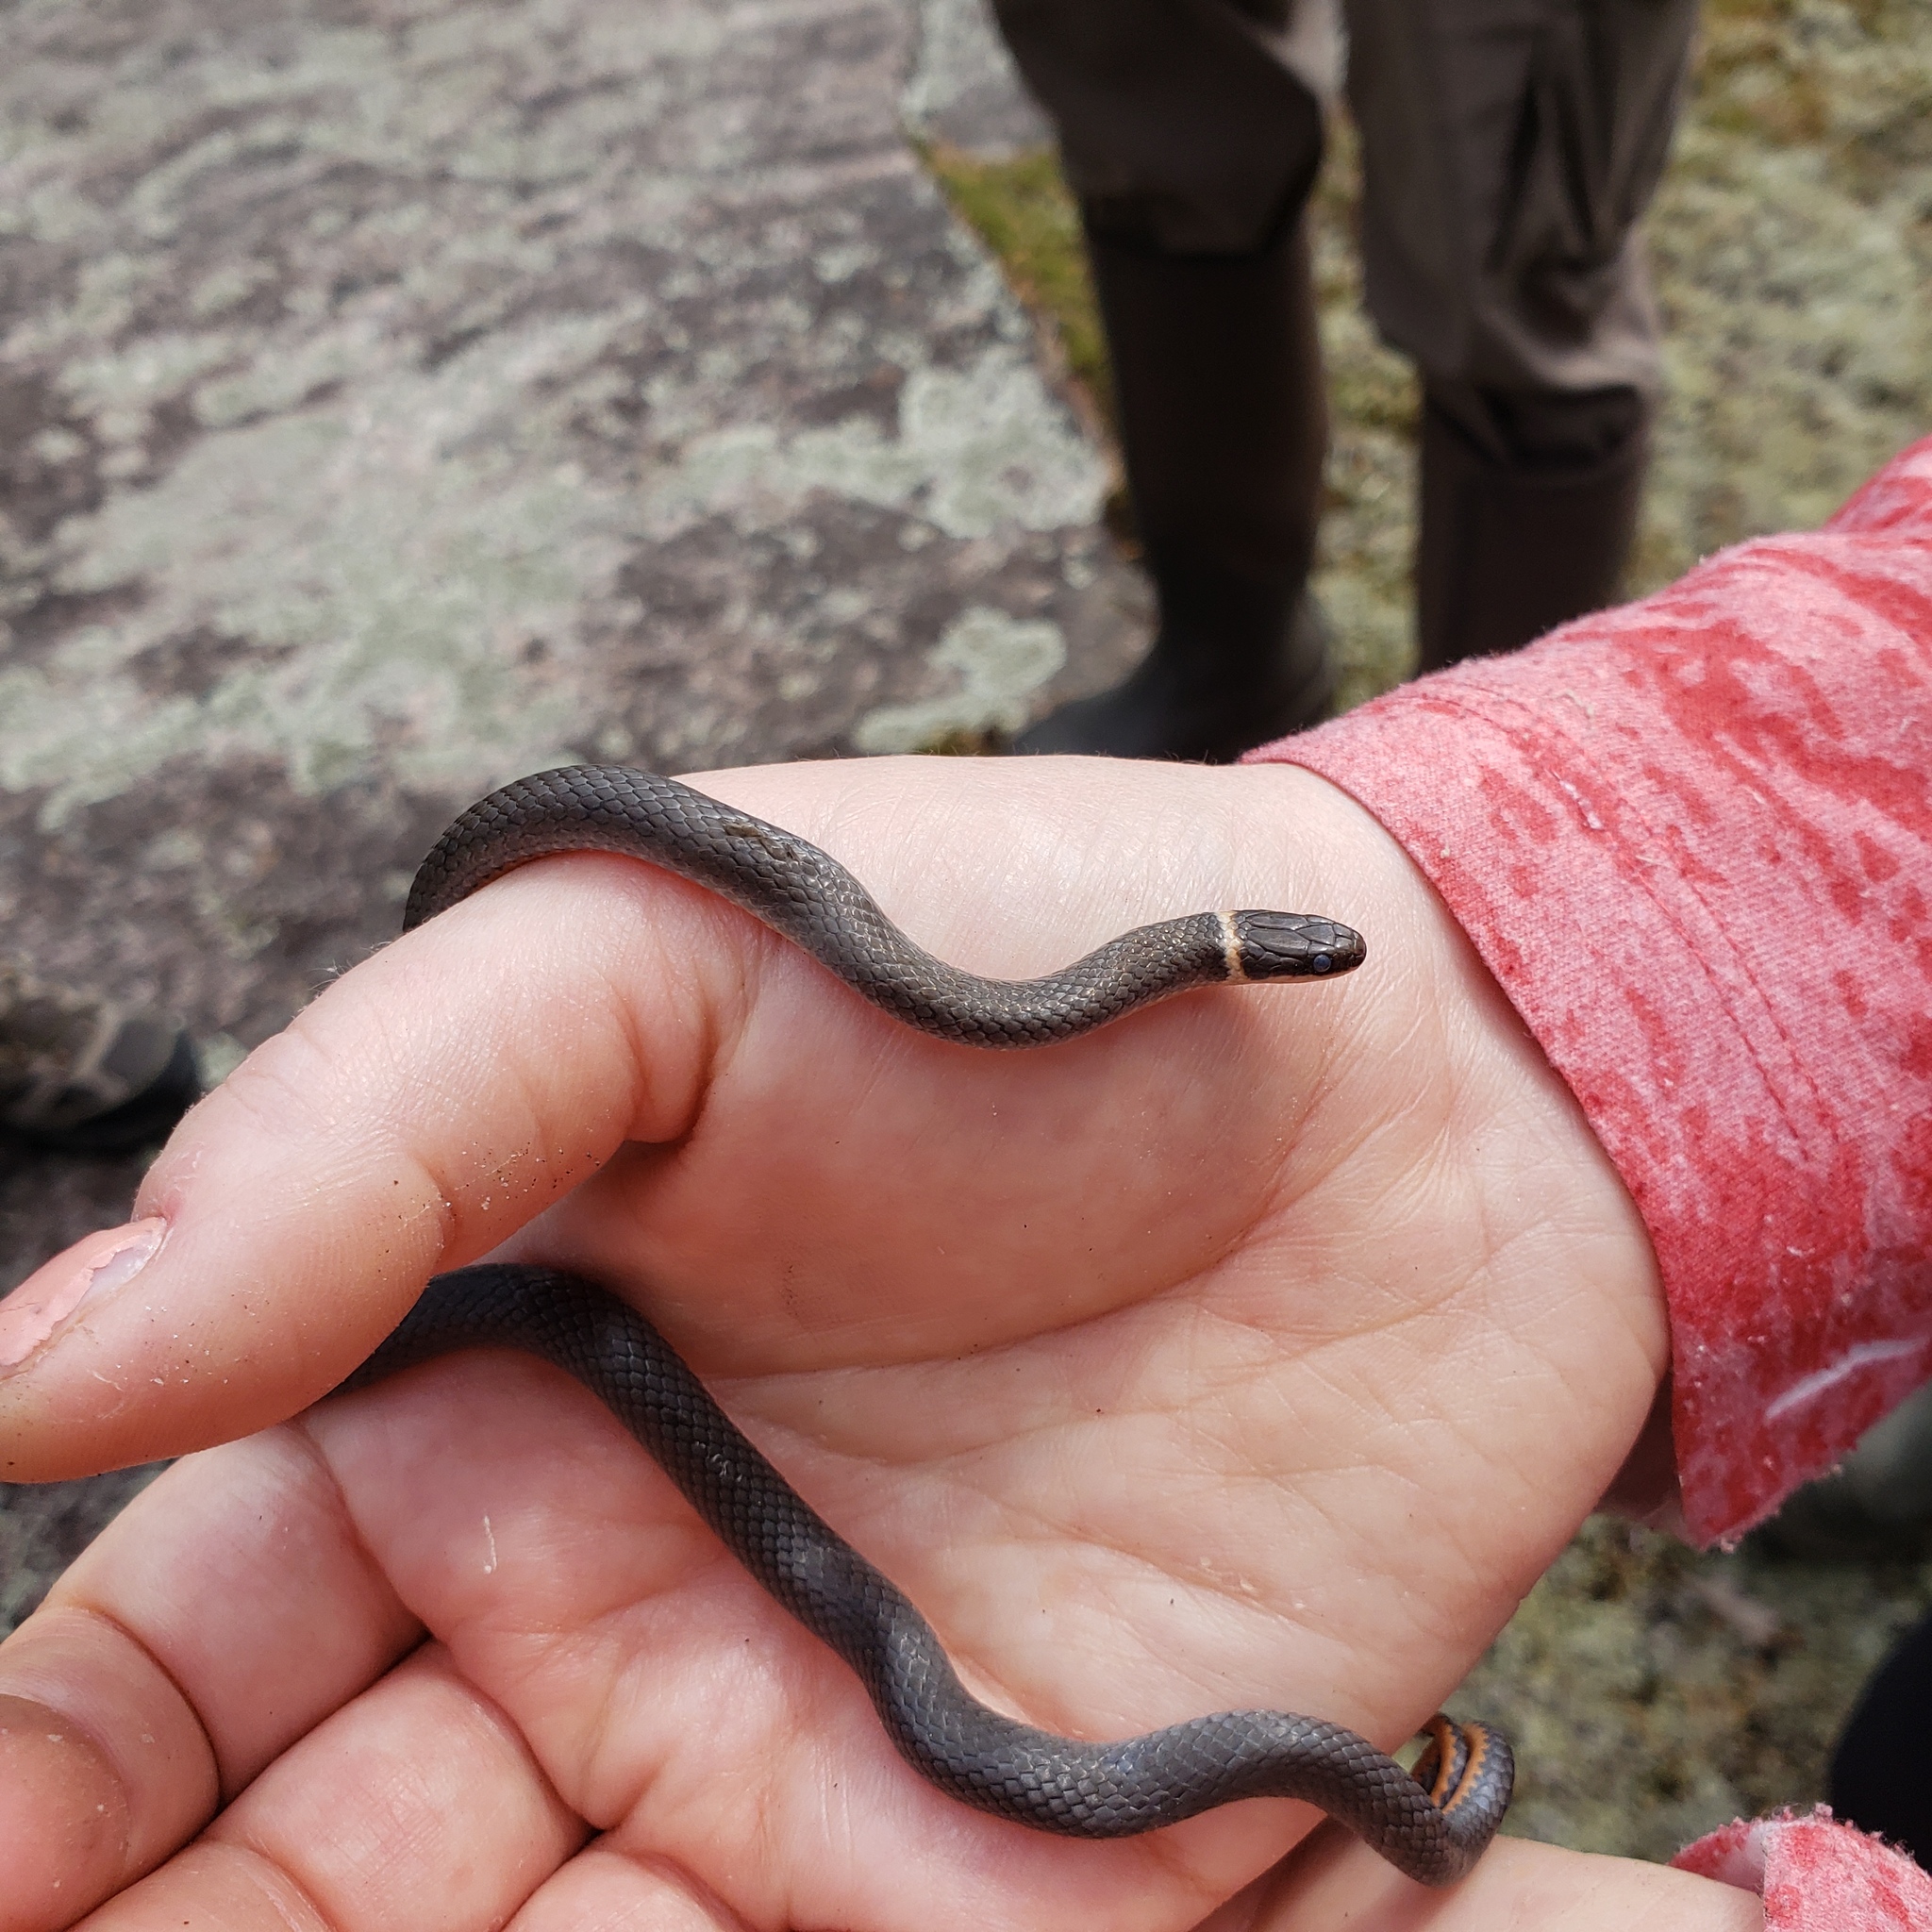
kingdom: Animalia
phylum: Chordata
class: Squamata
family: Colubridae
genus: Diadophis
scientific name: Diadophis punctatus
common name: Ringneck snake
